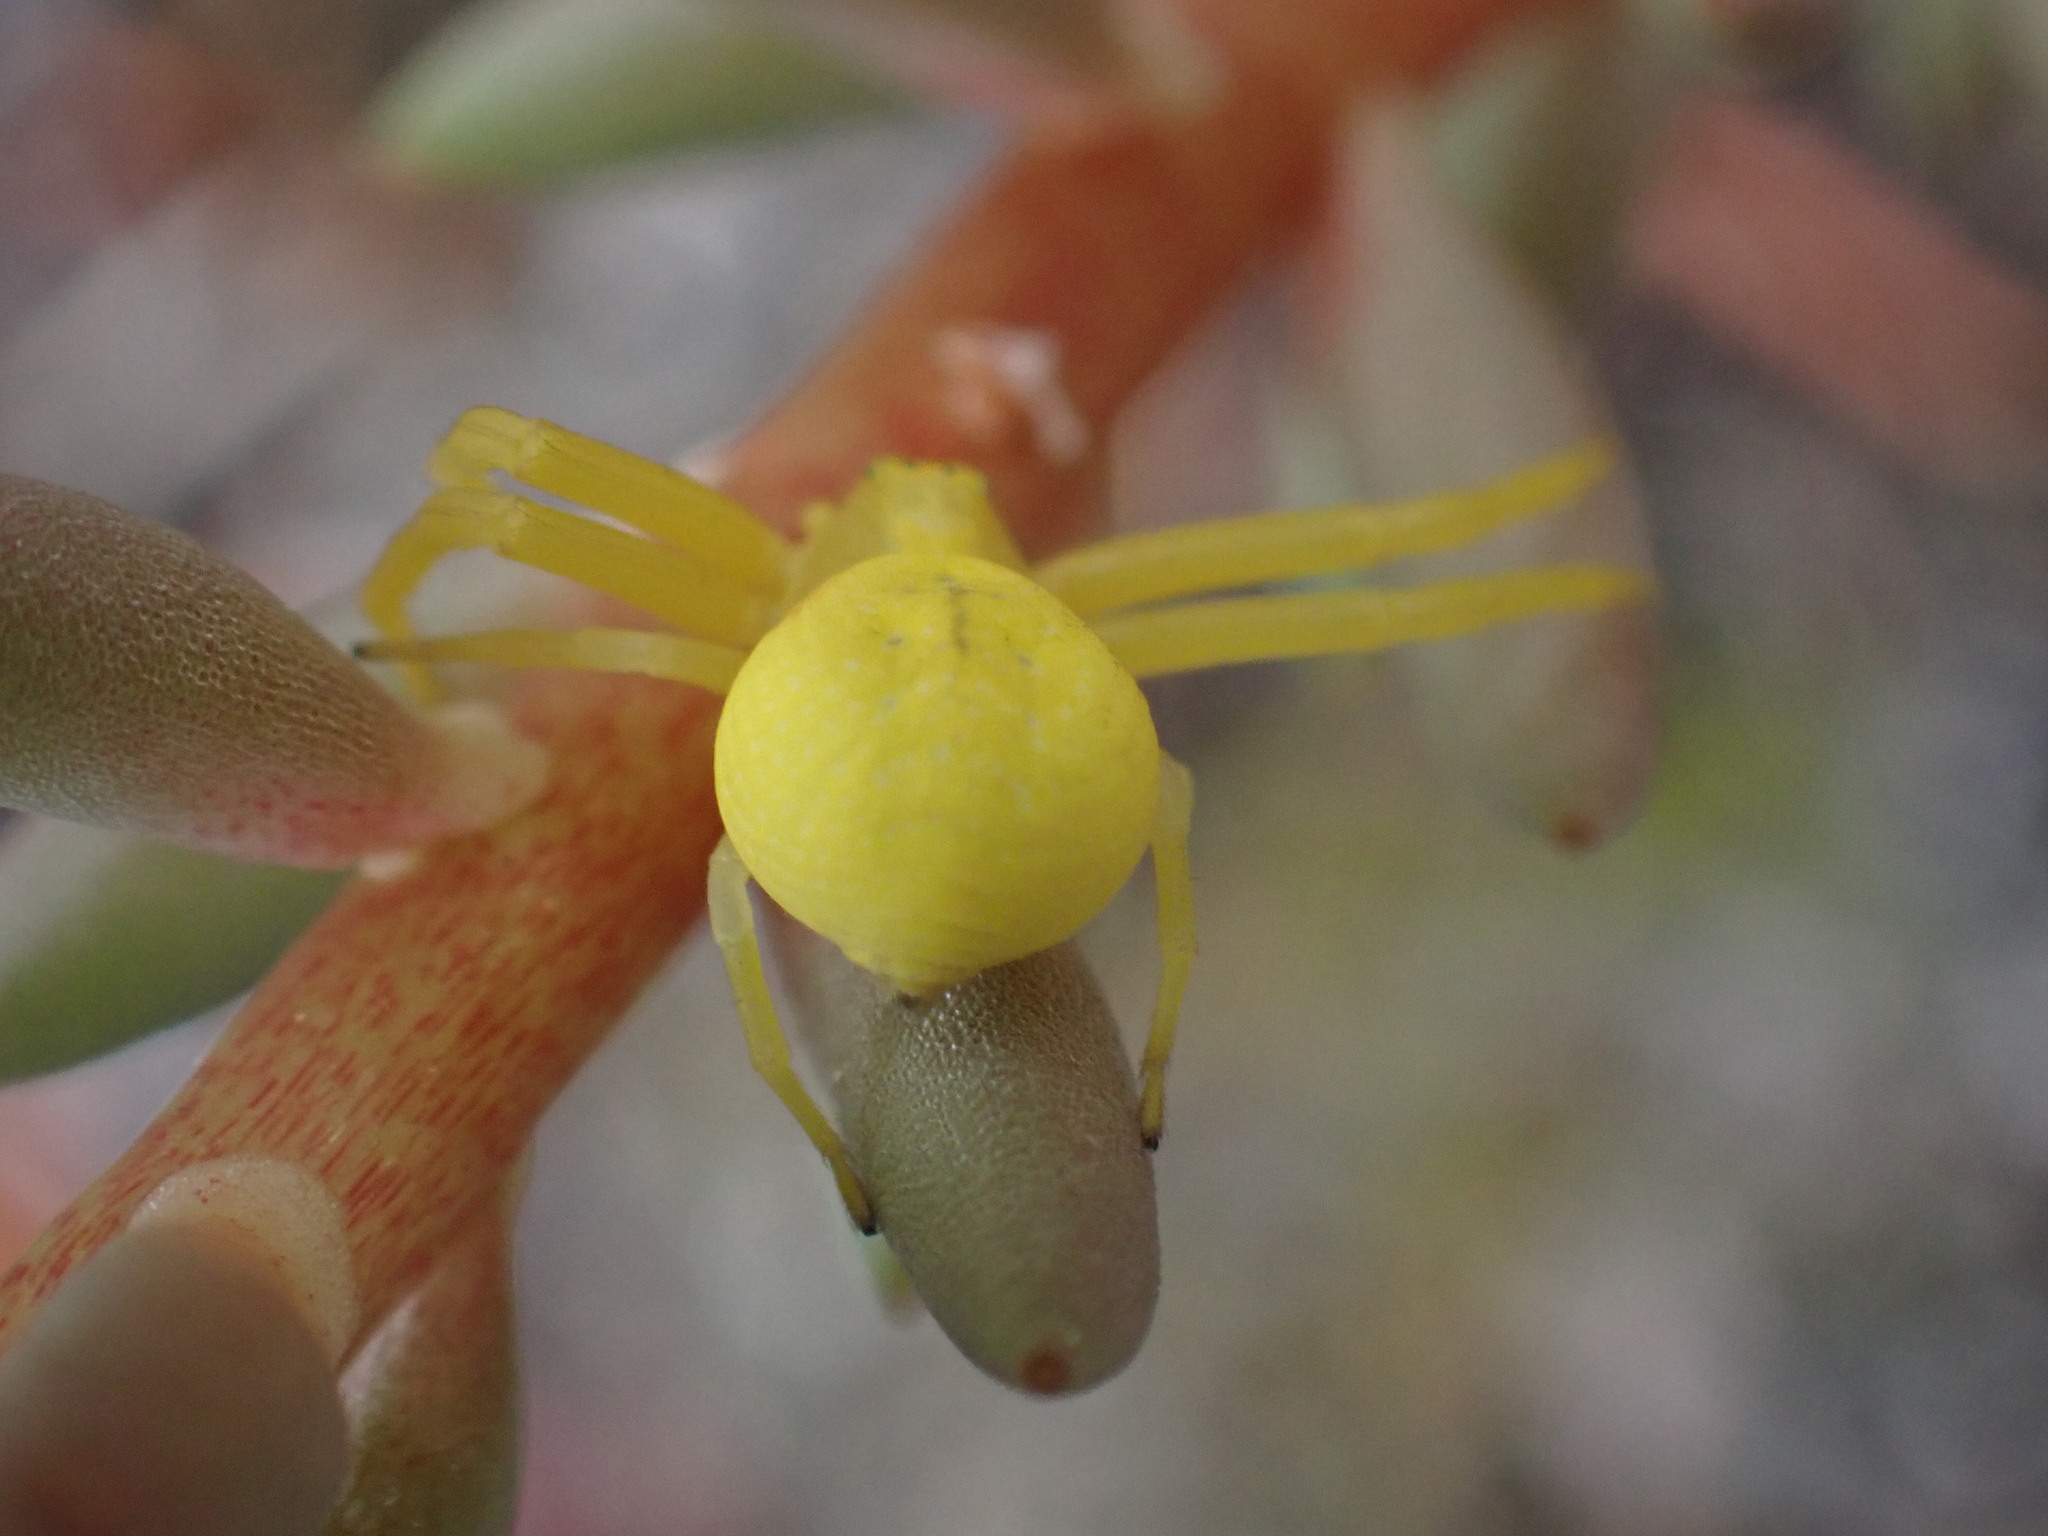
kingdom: Animalia
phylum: Arthropoda
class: Arachnida
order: Araneae
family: Thomisidae
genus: Misumena
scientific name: Misumena vatia
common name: Goldenrod crab spider
